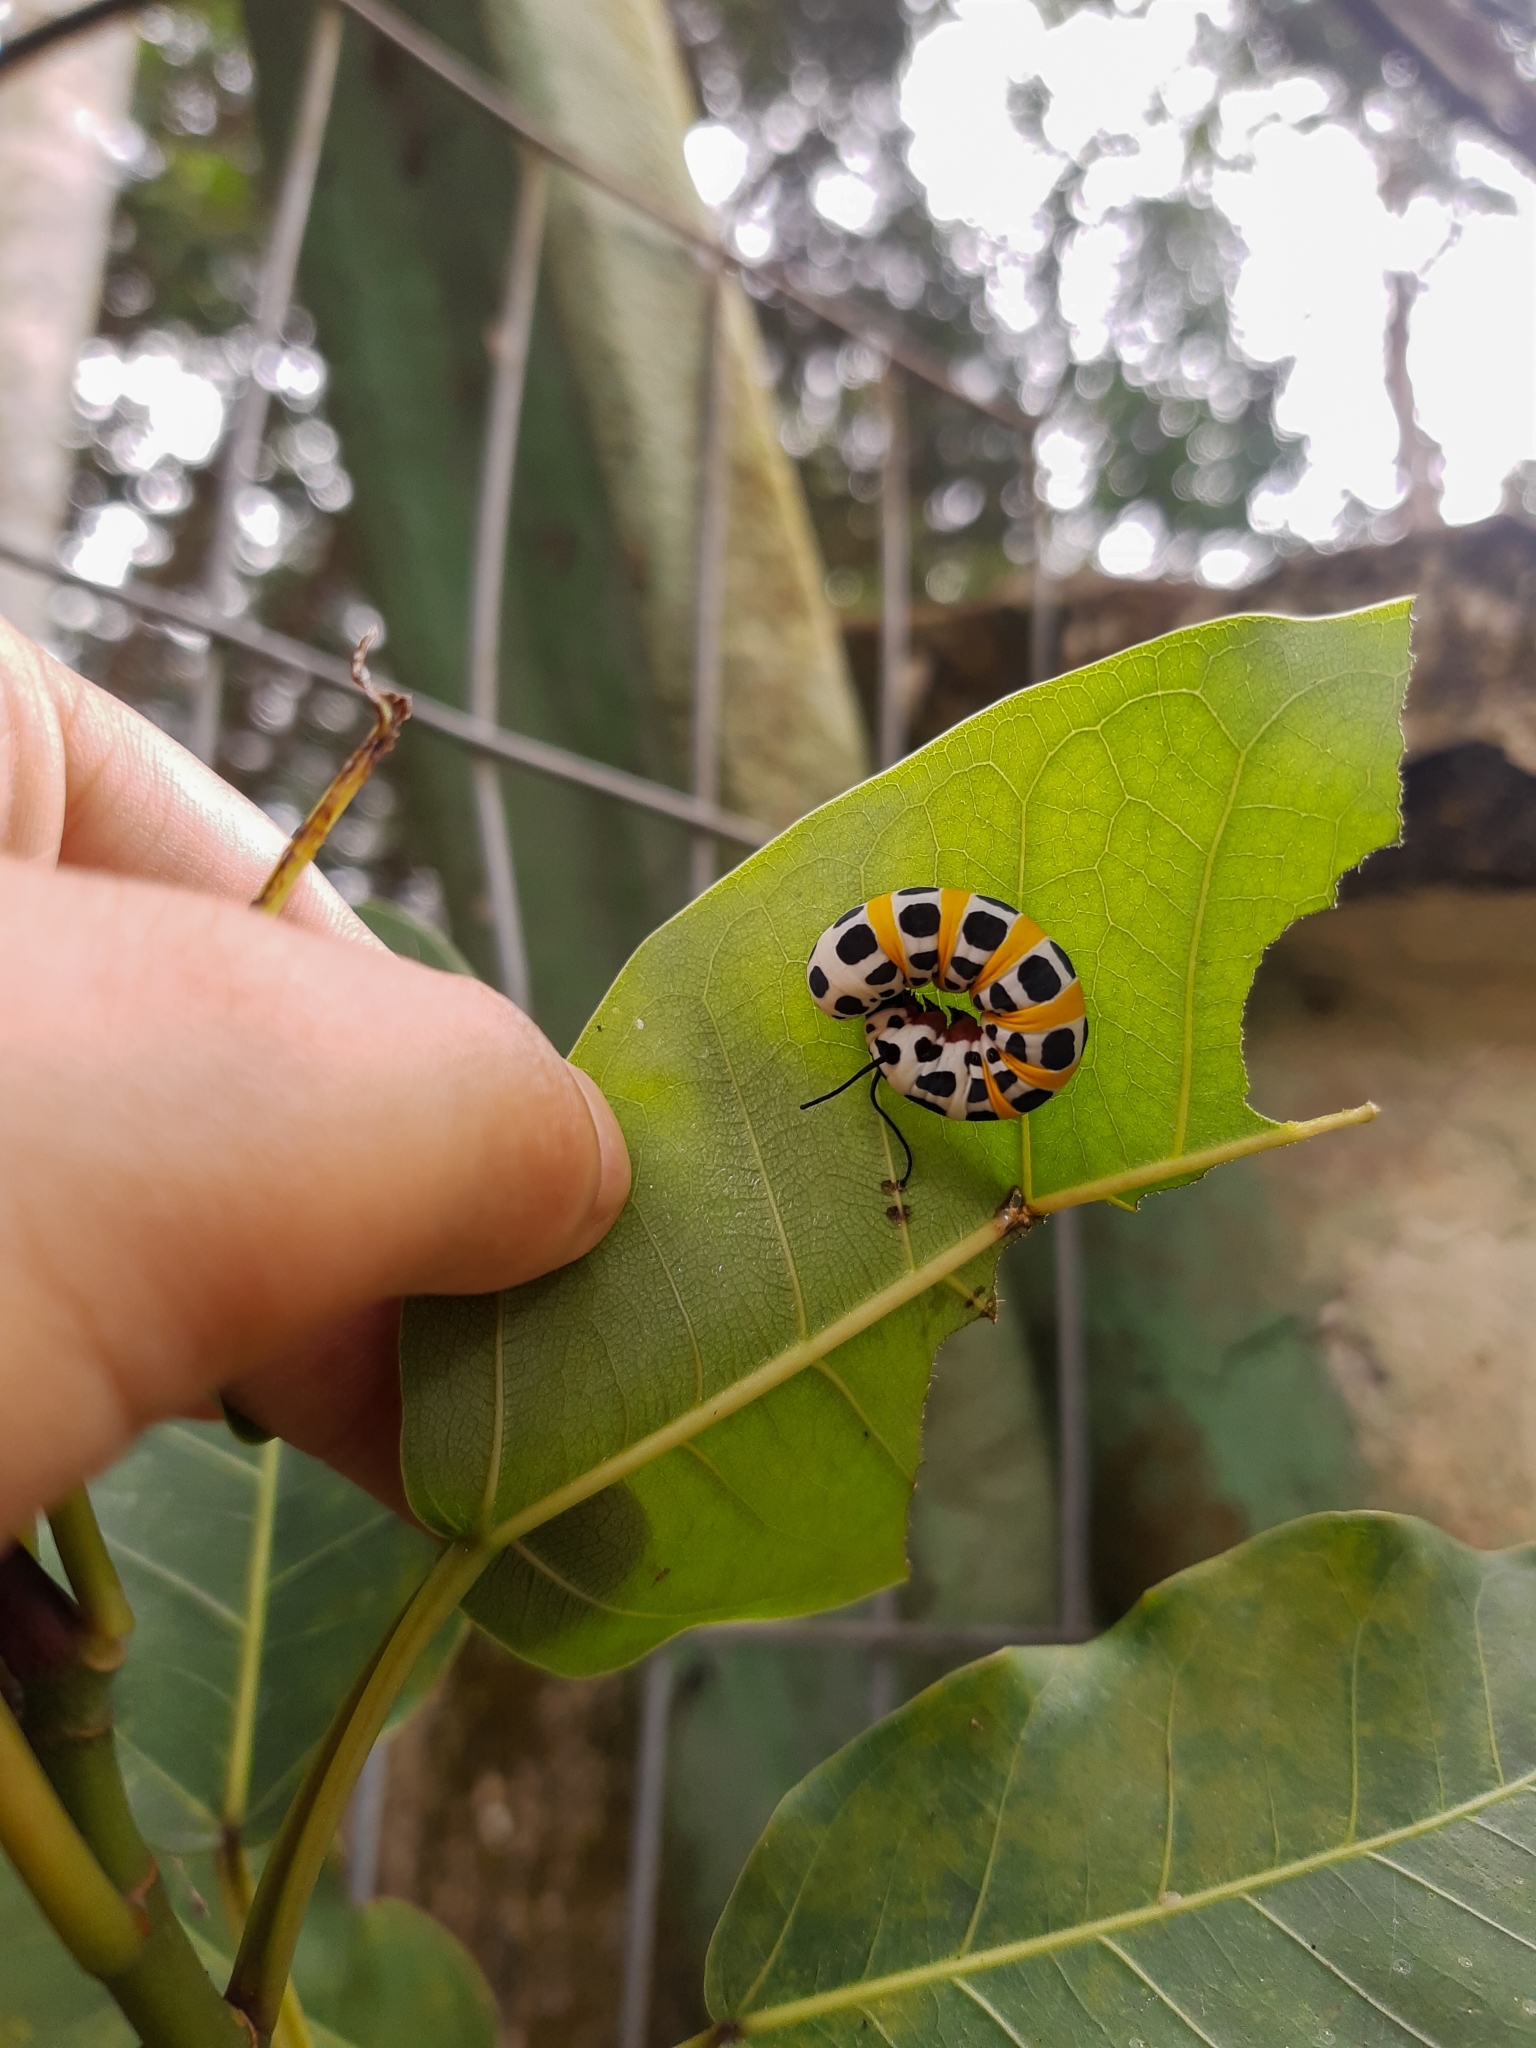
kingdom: Animalia
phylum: Arthropoda
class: Insecta
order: Lepidoptera
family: Nymphalidae
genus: Lycorea
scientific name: Lycorea ilione
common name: Clearwing mimic-queen
